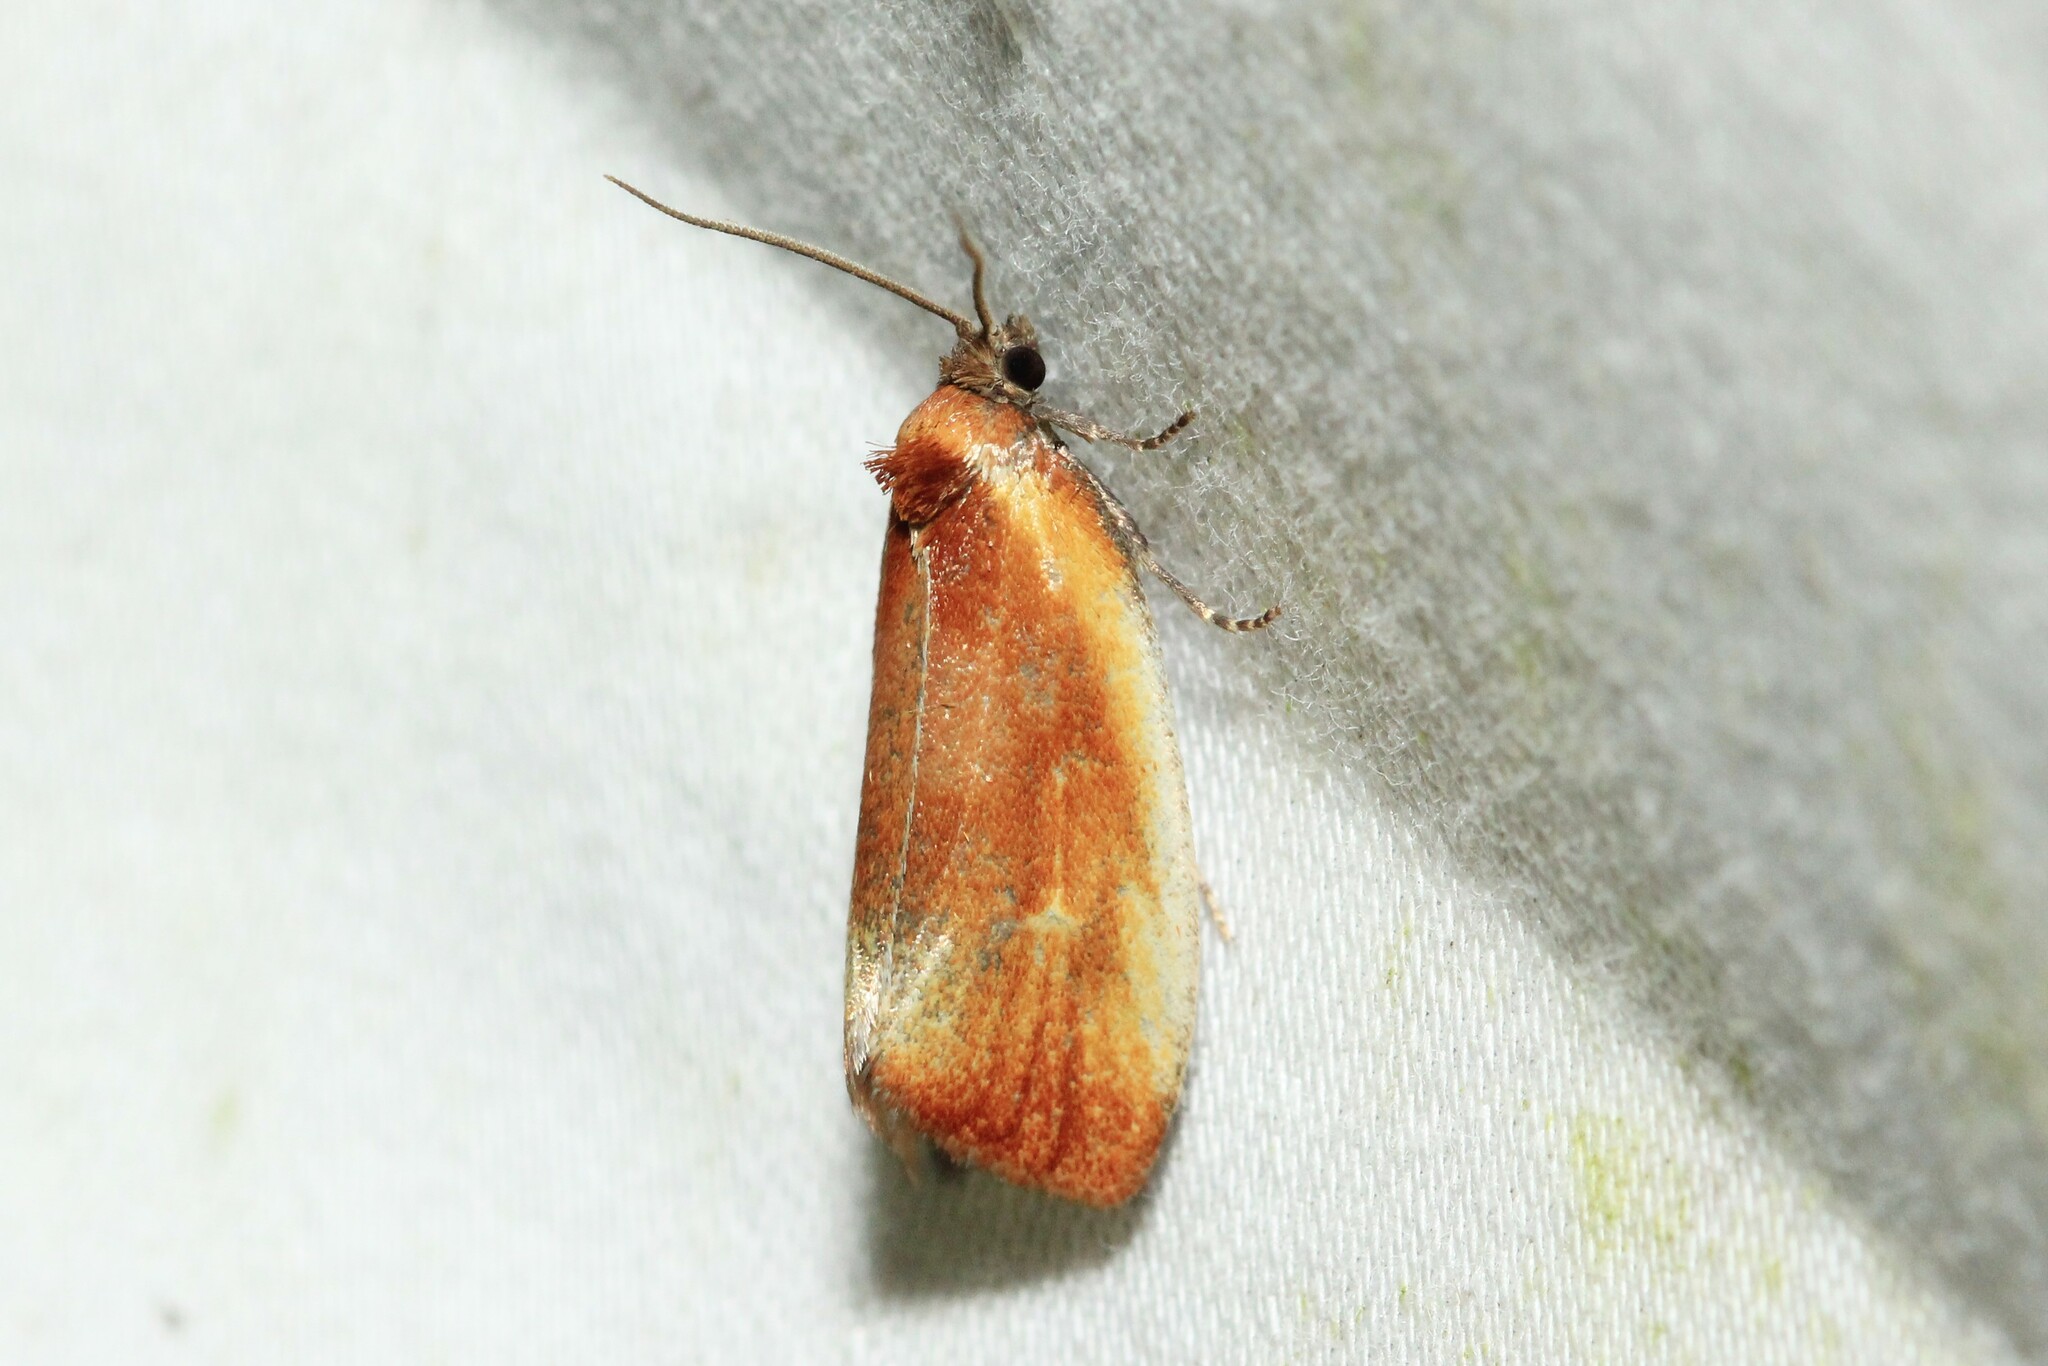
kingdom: Animalia
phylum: Arthropoda
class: Insecta
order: Lepidoptera
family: Tortricidae
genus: Eulia
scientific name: Eulia ministrana
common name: Brassy twist
